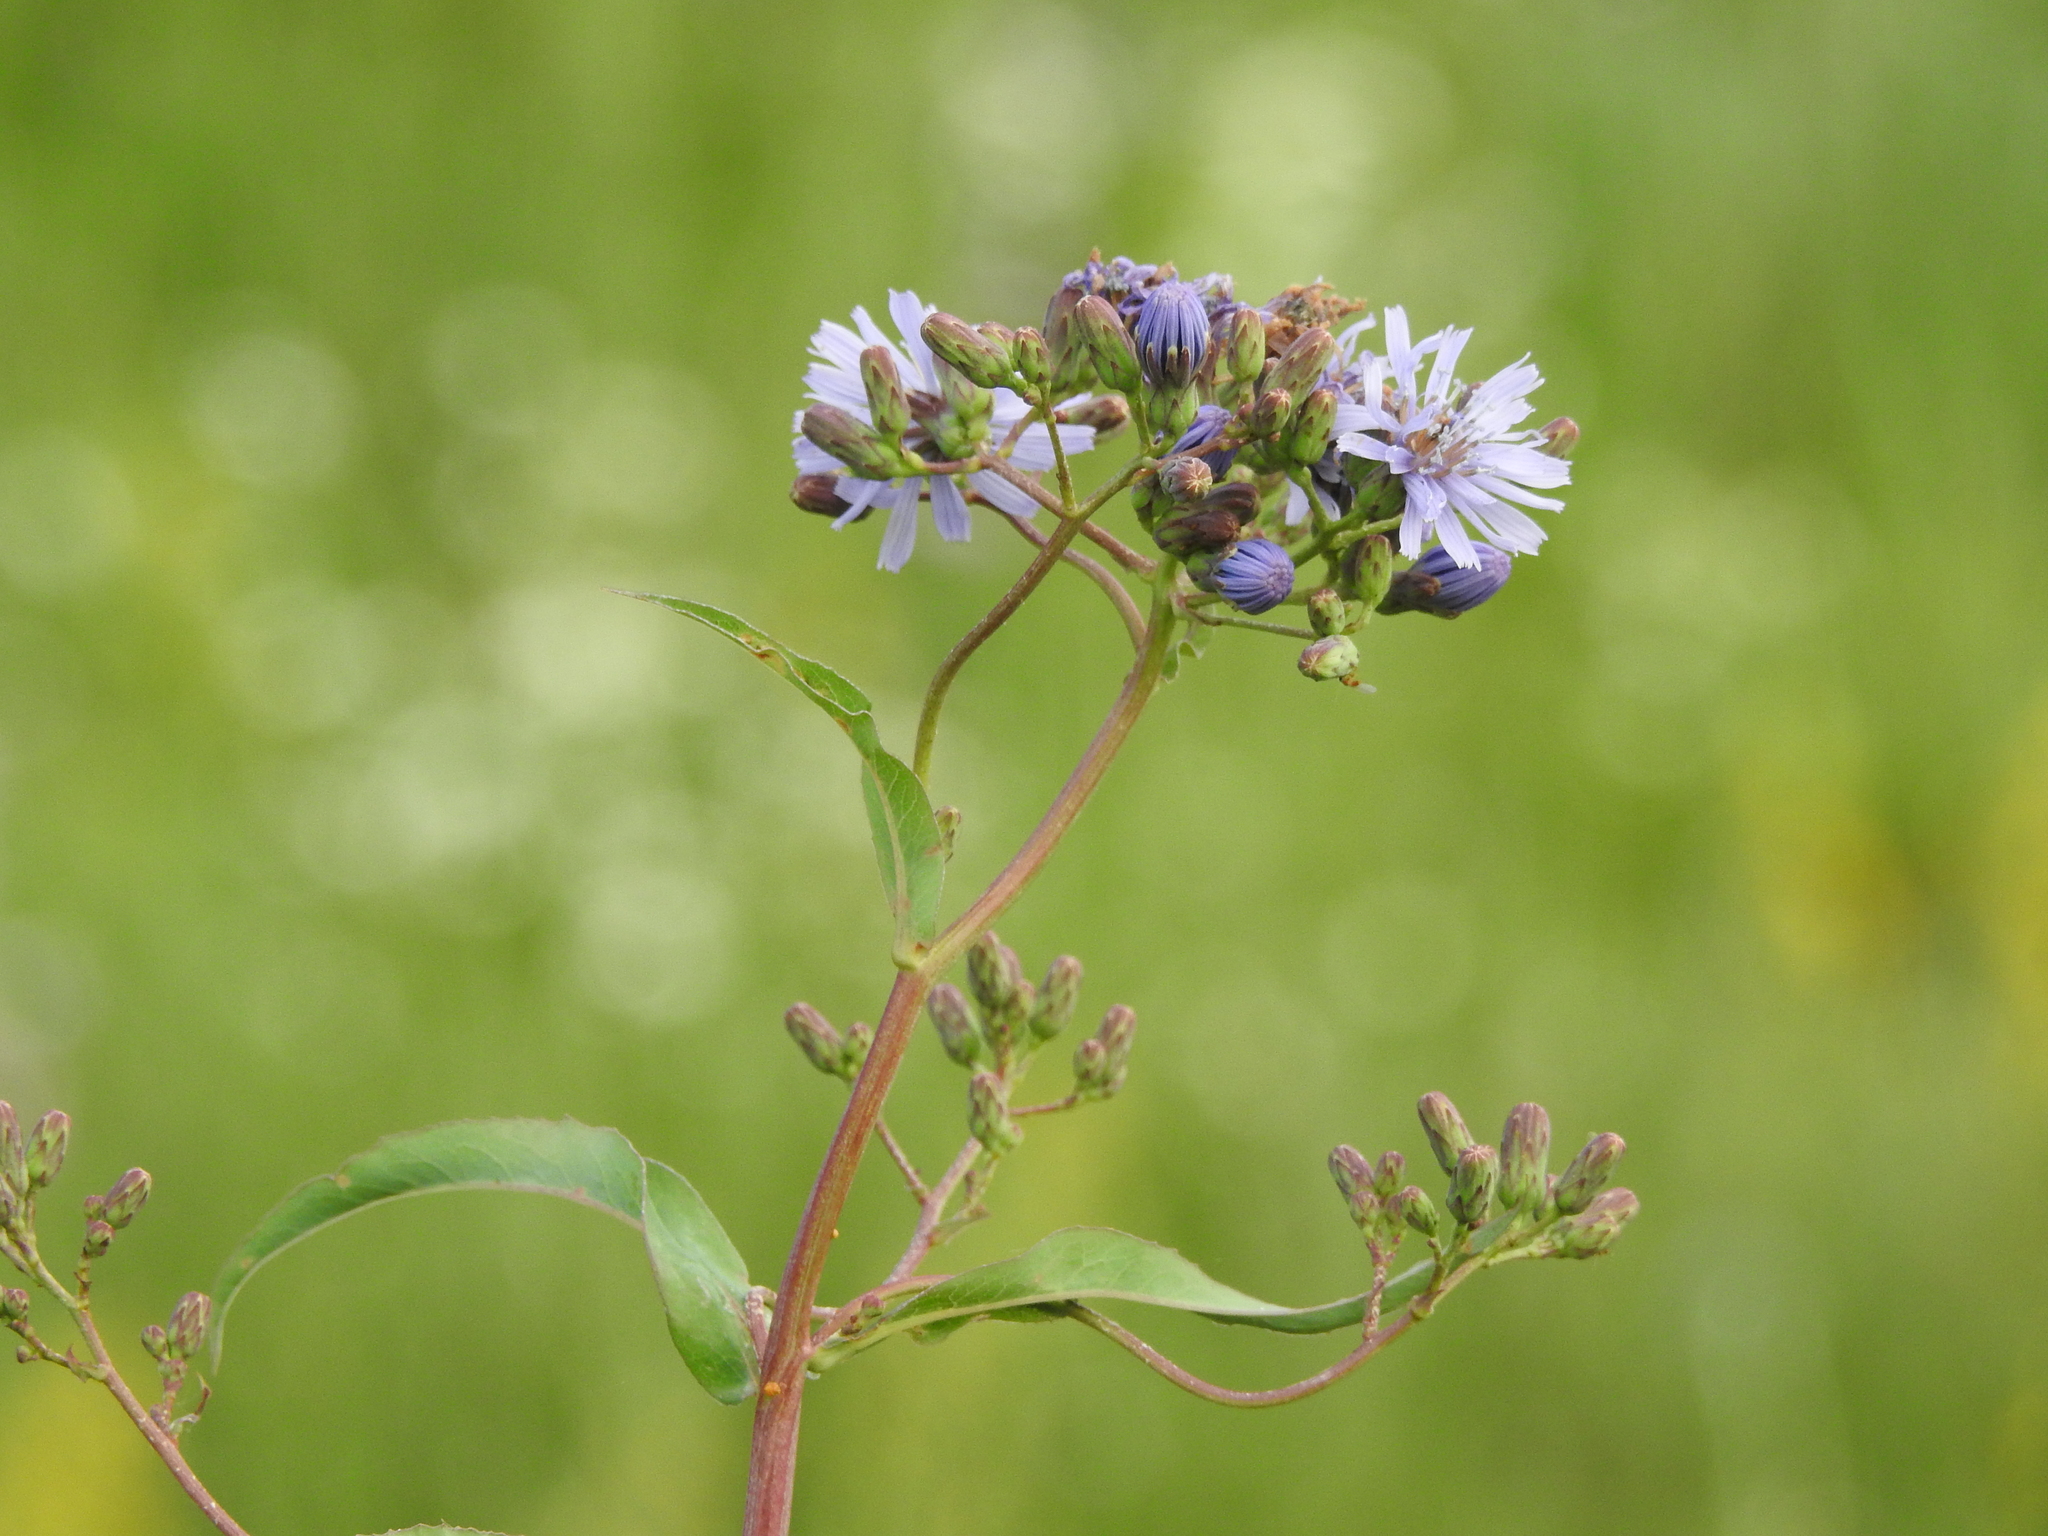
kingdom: Plantae
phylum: Tracheophyta
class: Magnoliopsida
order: Asterales
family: Asteraceae
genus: Lactuca
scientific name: Lactuca sibirica
